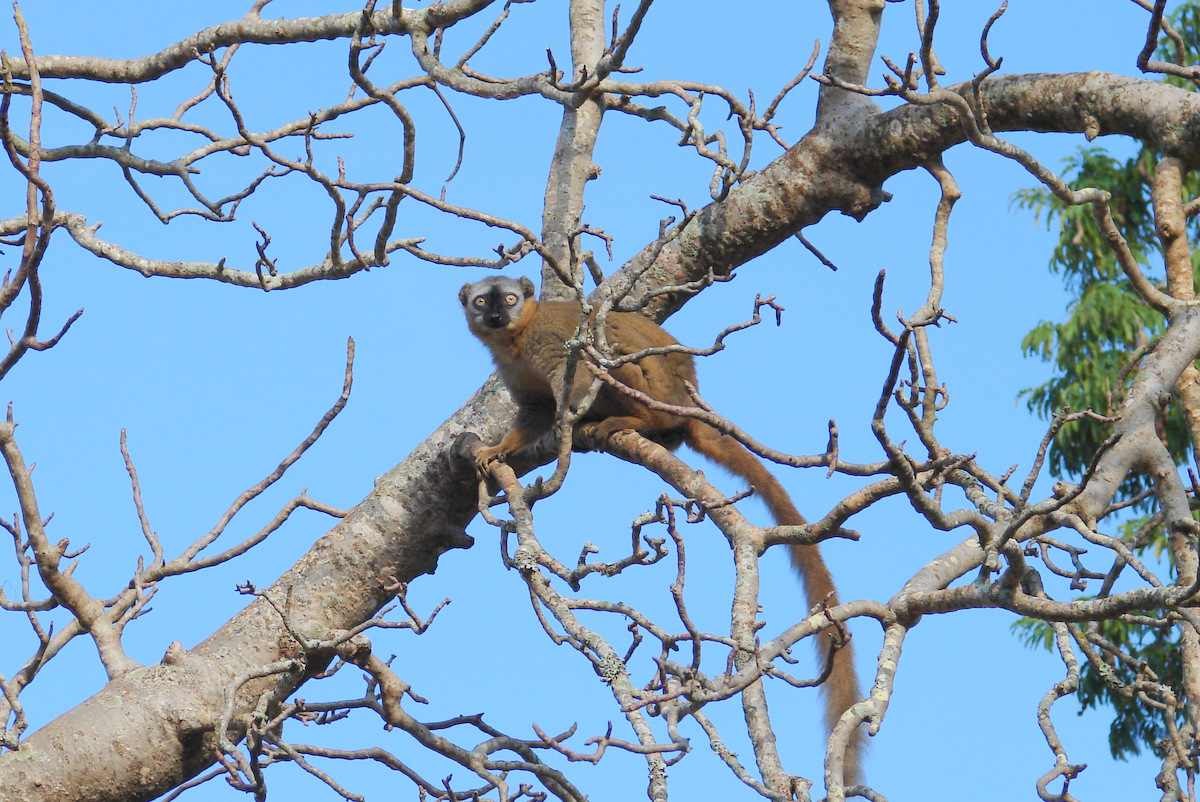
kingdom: Animalia
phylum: Chordata
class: Mammalia
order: Primates
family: Lemuridae
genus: Eulemur
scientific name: Eulemur
